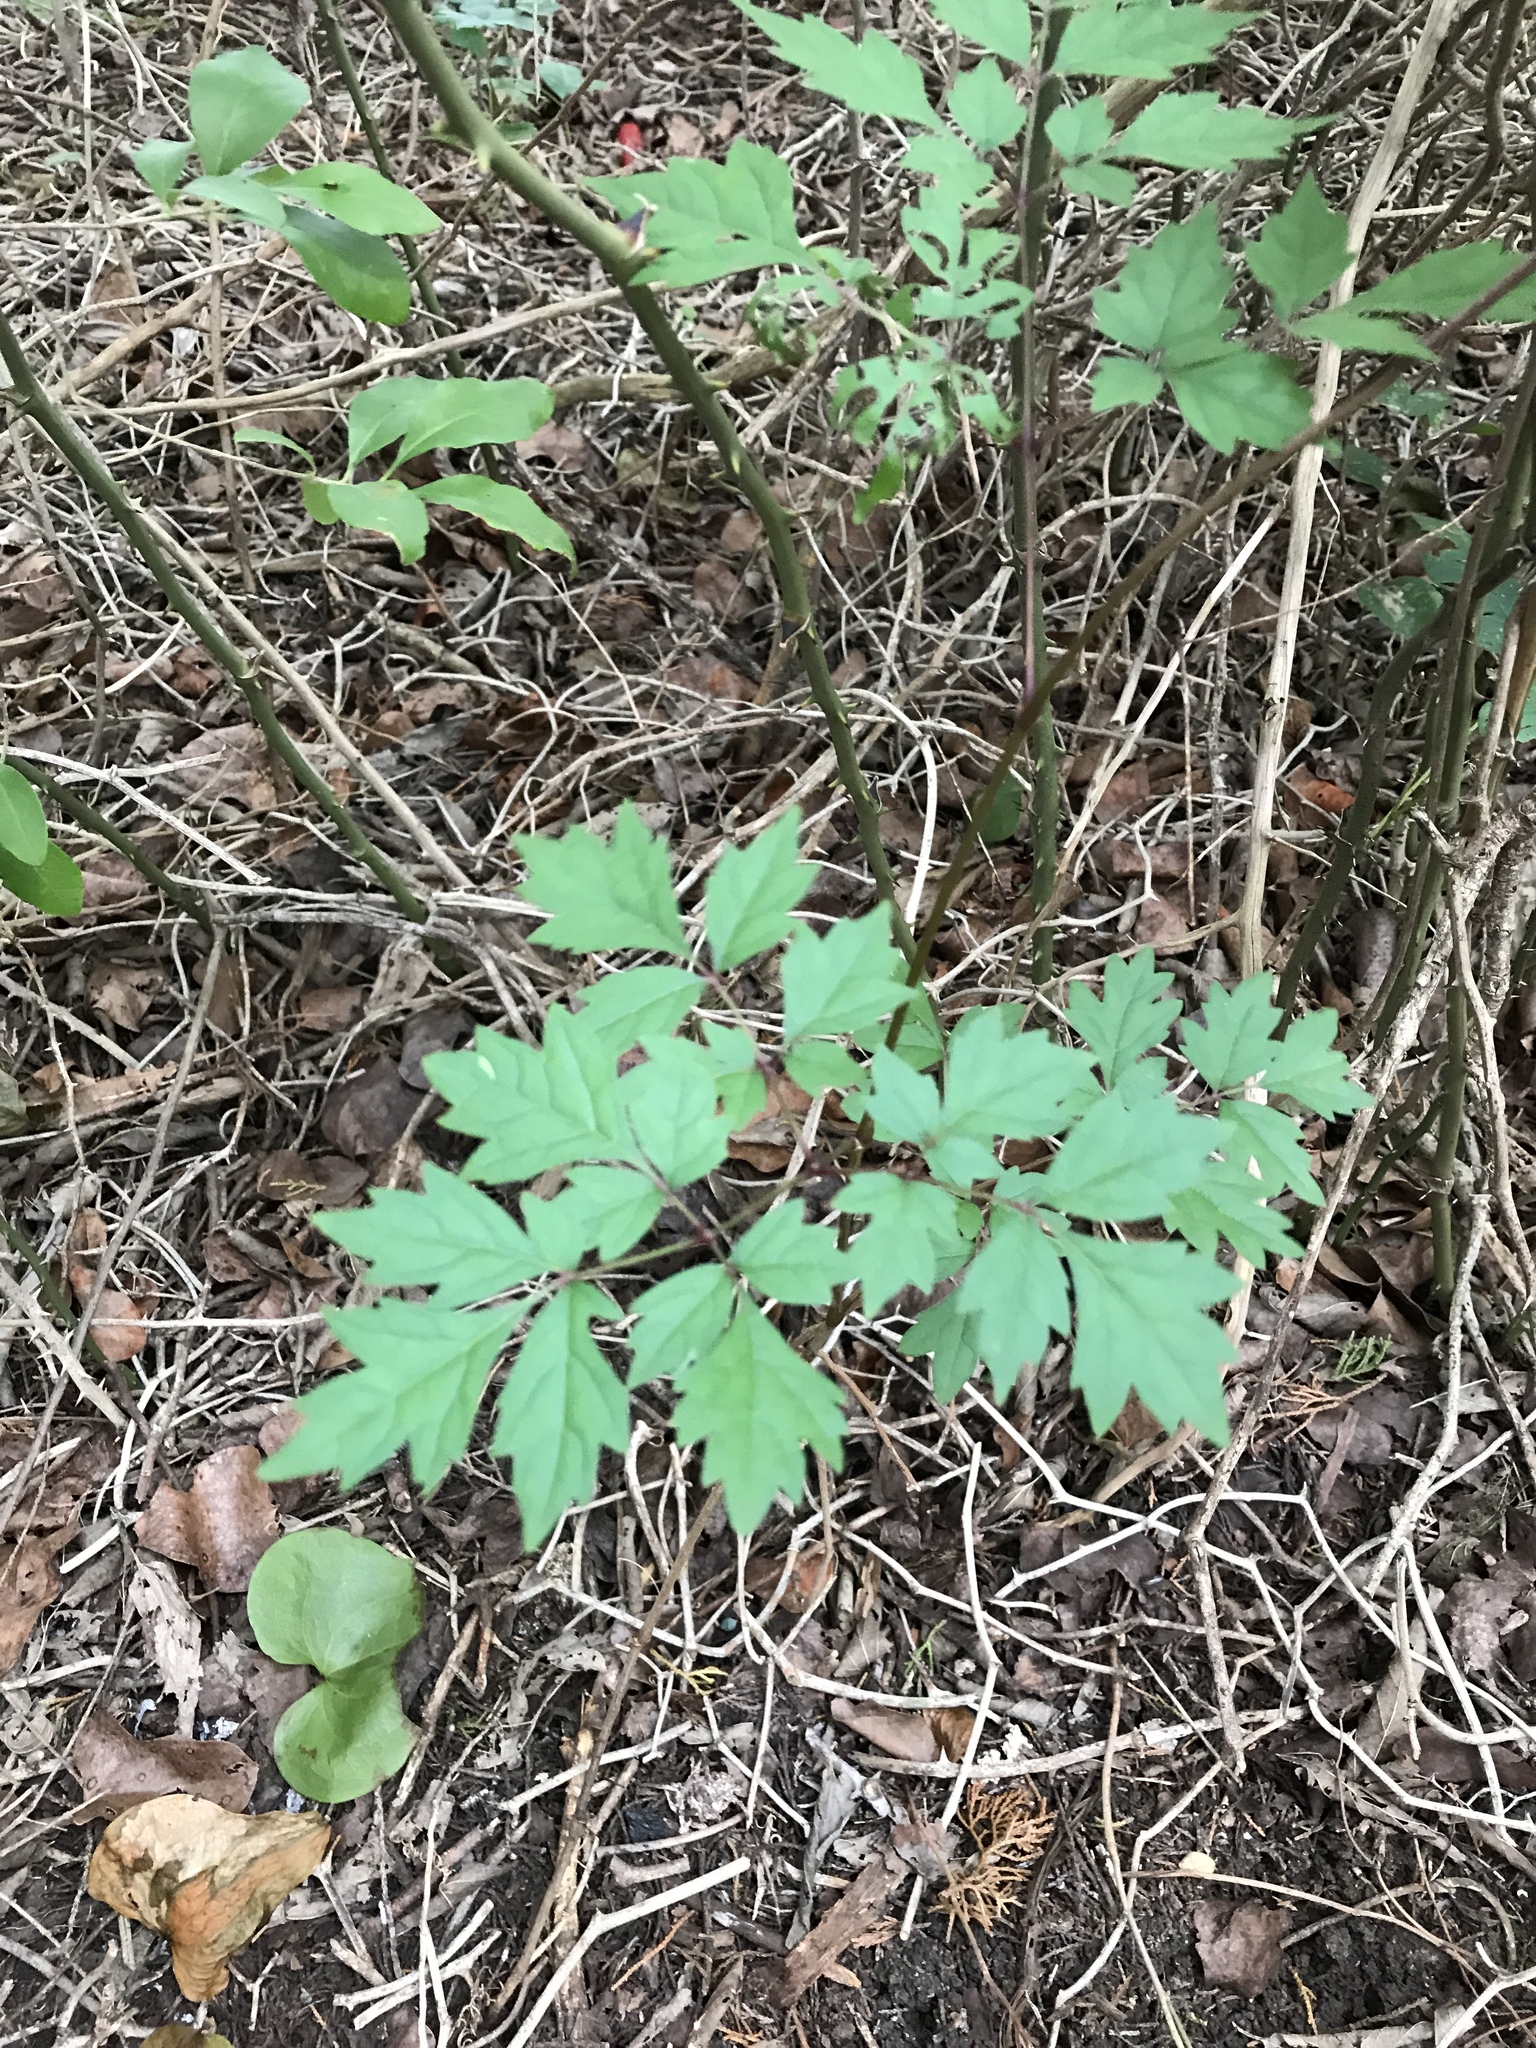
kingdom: Plantae
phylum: Tracheophyta
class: Magnoliopsida
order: Vitales
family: Vitaceae
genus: Nekemias
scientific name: Nekemias arborea
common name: Peppervine
